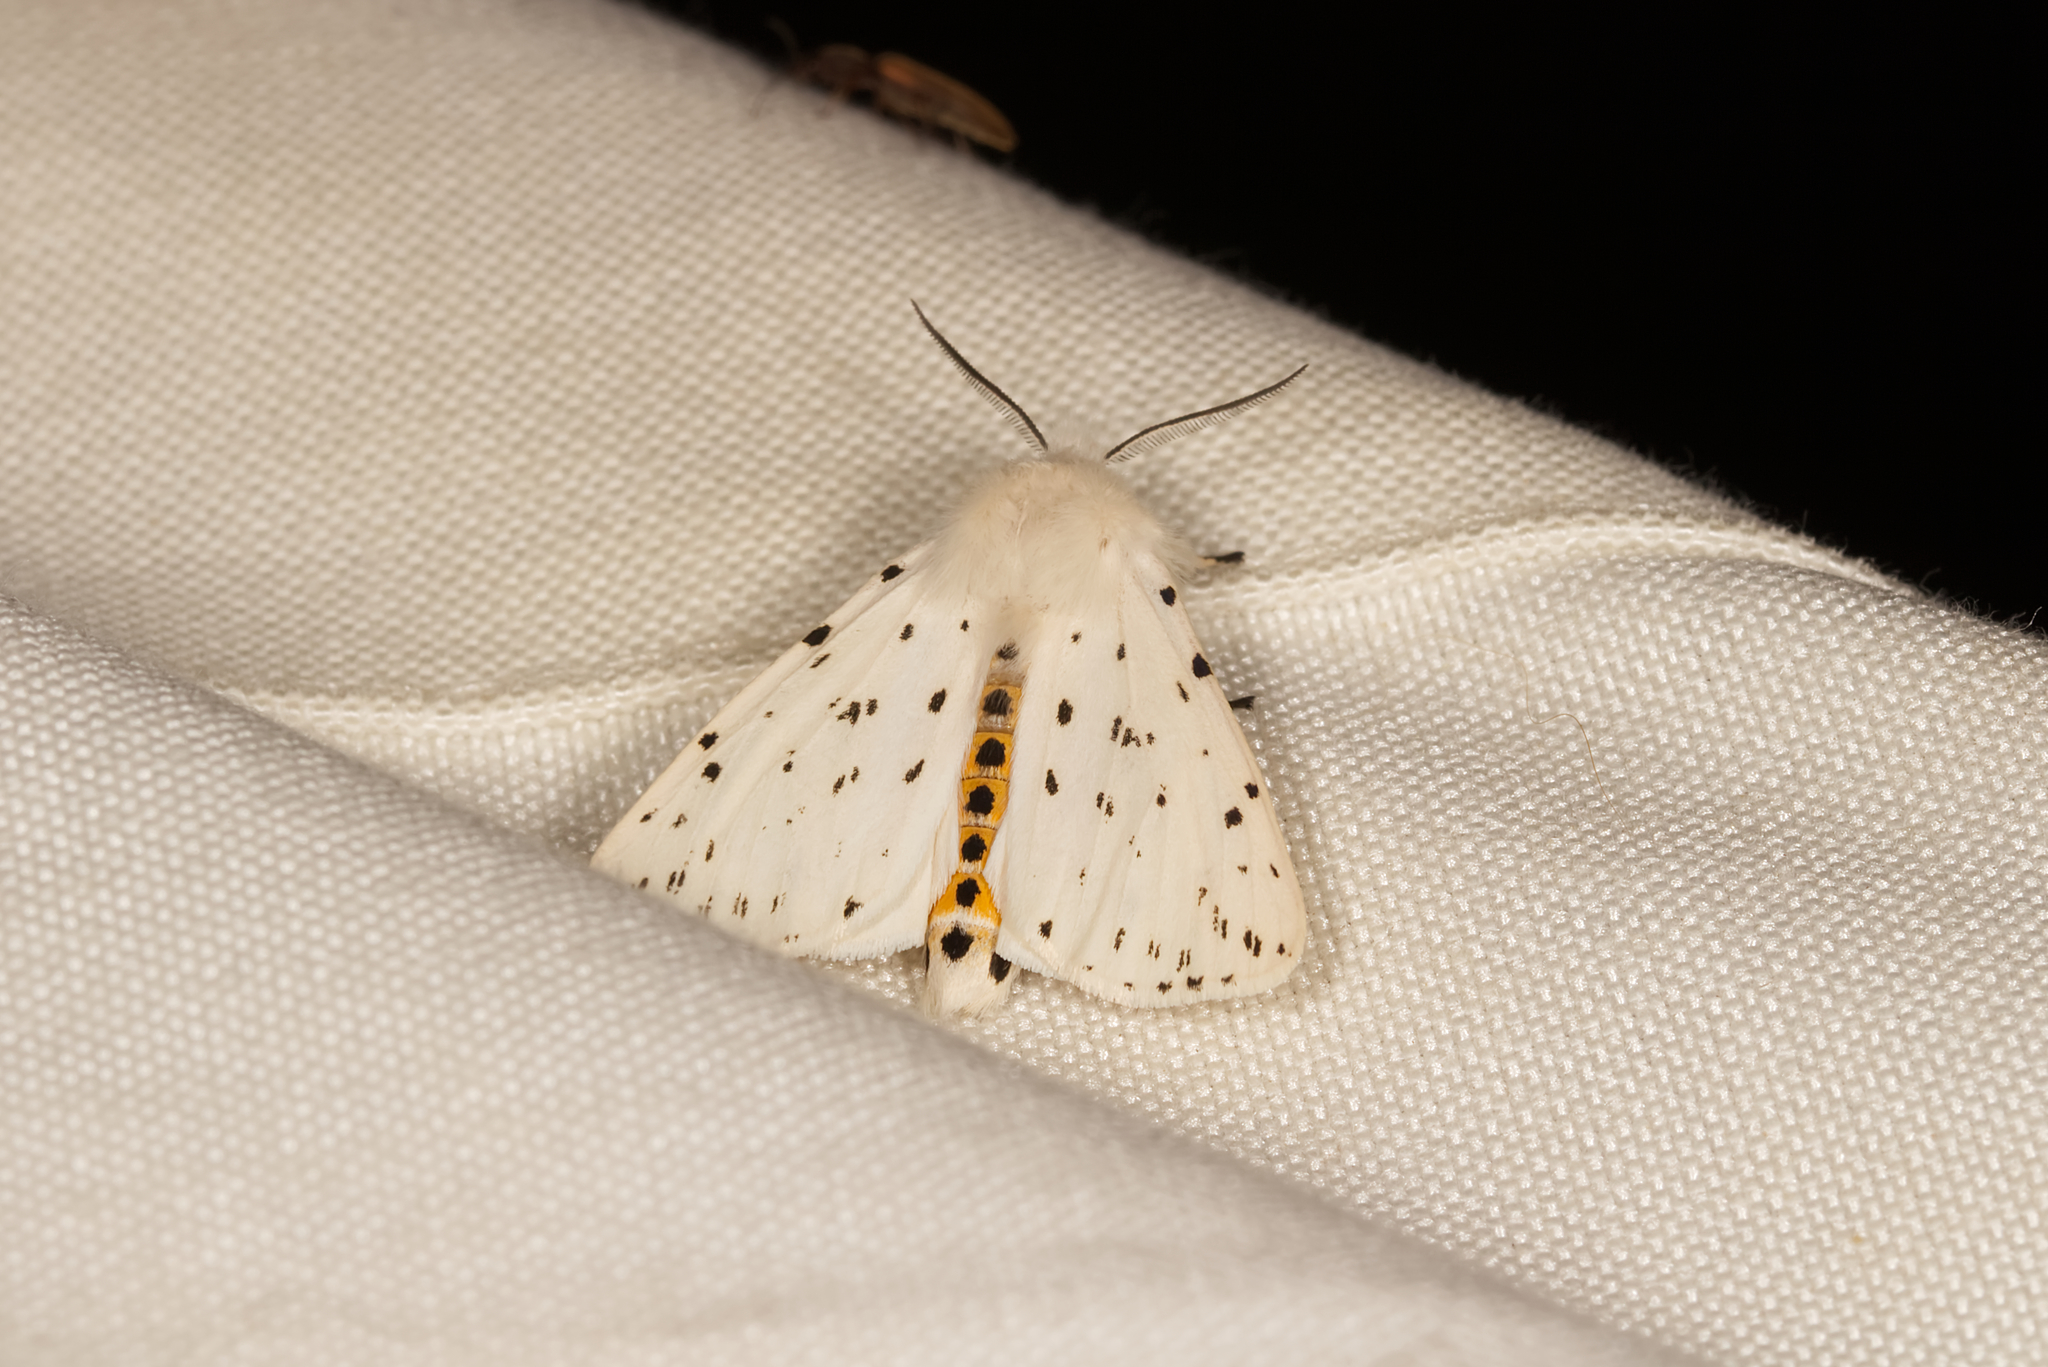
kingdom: Animalia
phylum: Arthropoda
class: Insecta
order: Lepidoptera
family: Erebidae
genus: Spilosoma
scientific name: Spilosoma lubricipeda
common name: White ermine
